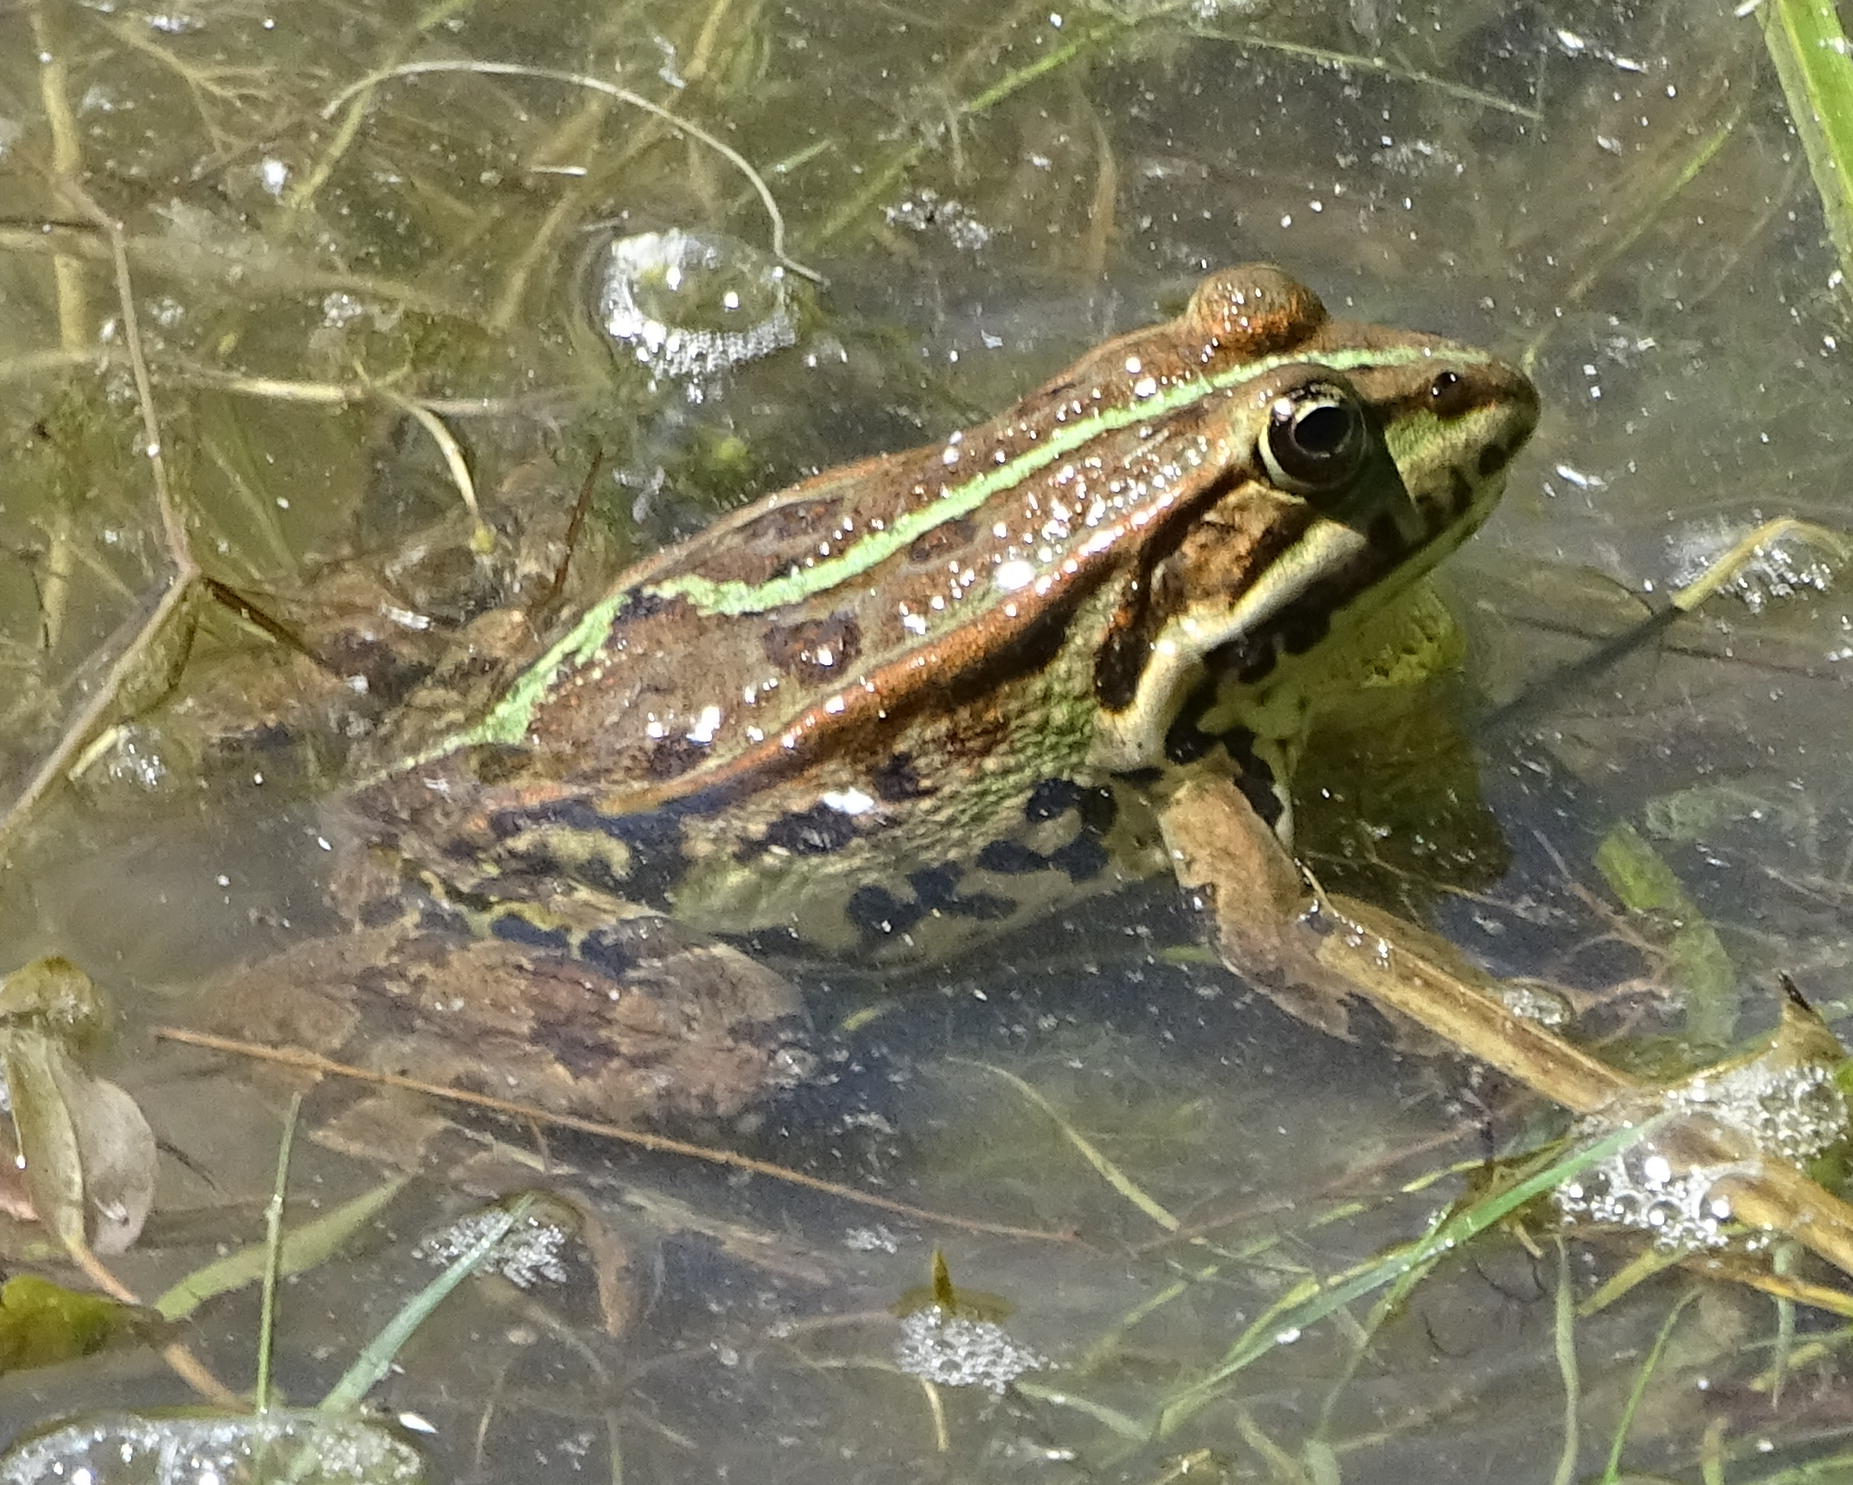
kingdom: Animalia
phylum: Chordata
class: Amphibia
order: Anura
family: Ranidae
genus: Pelophylax
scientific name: Pelophylax
